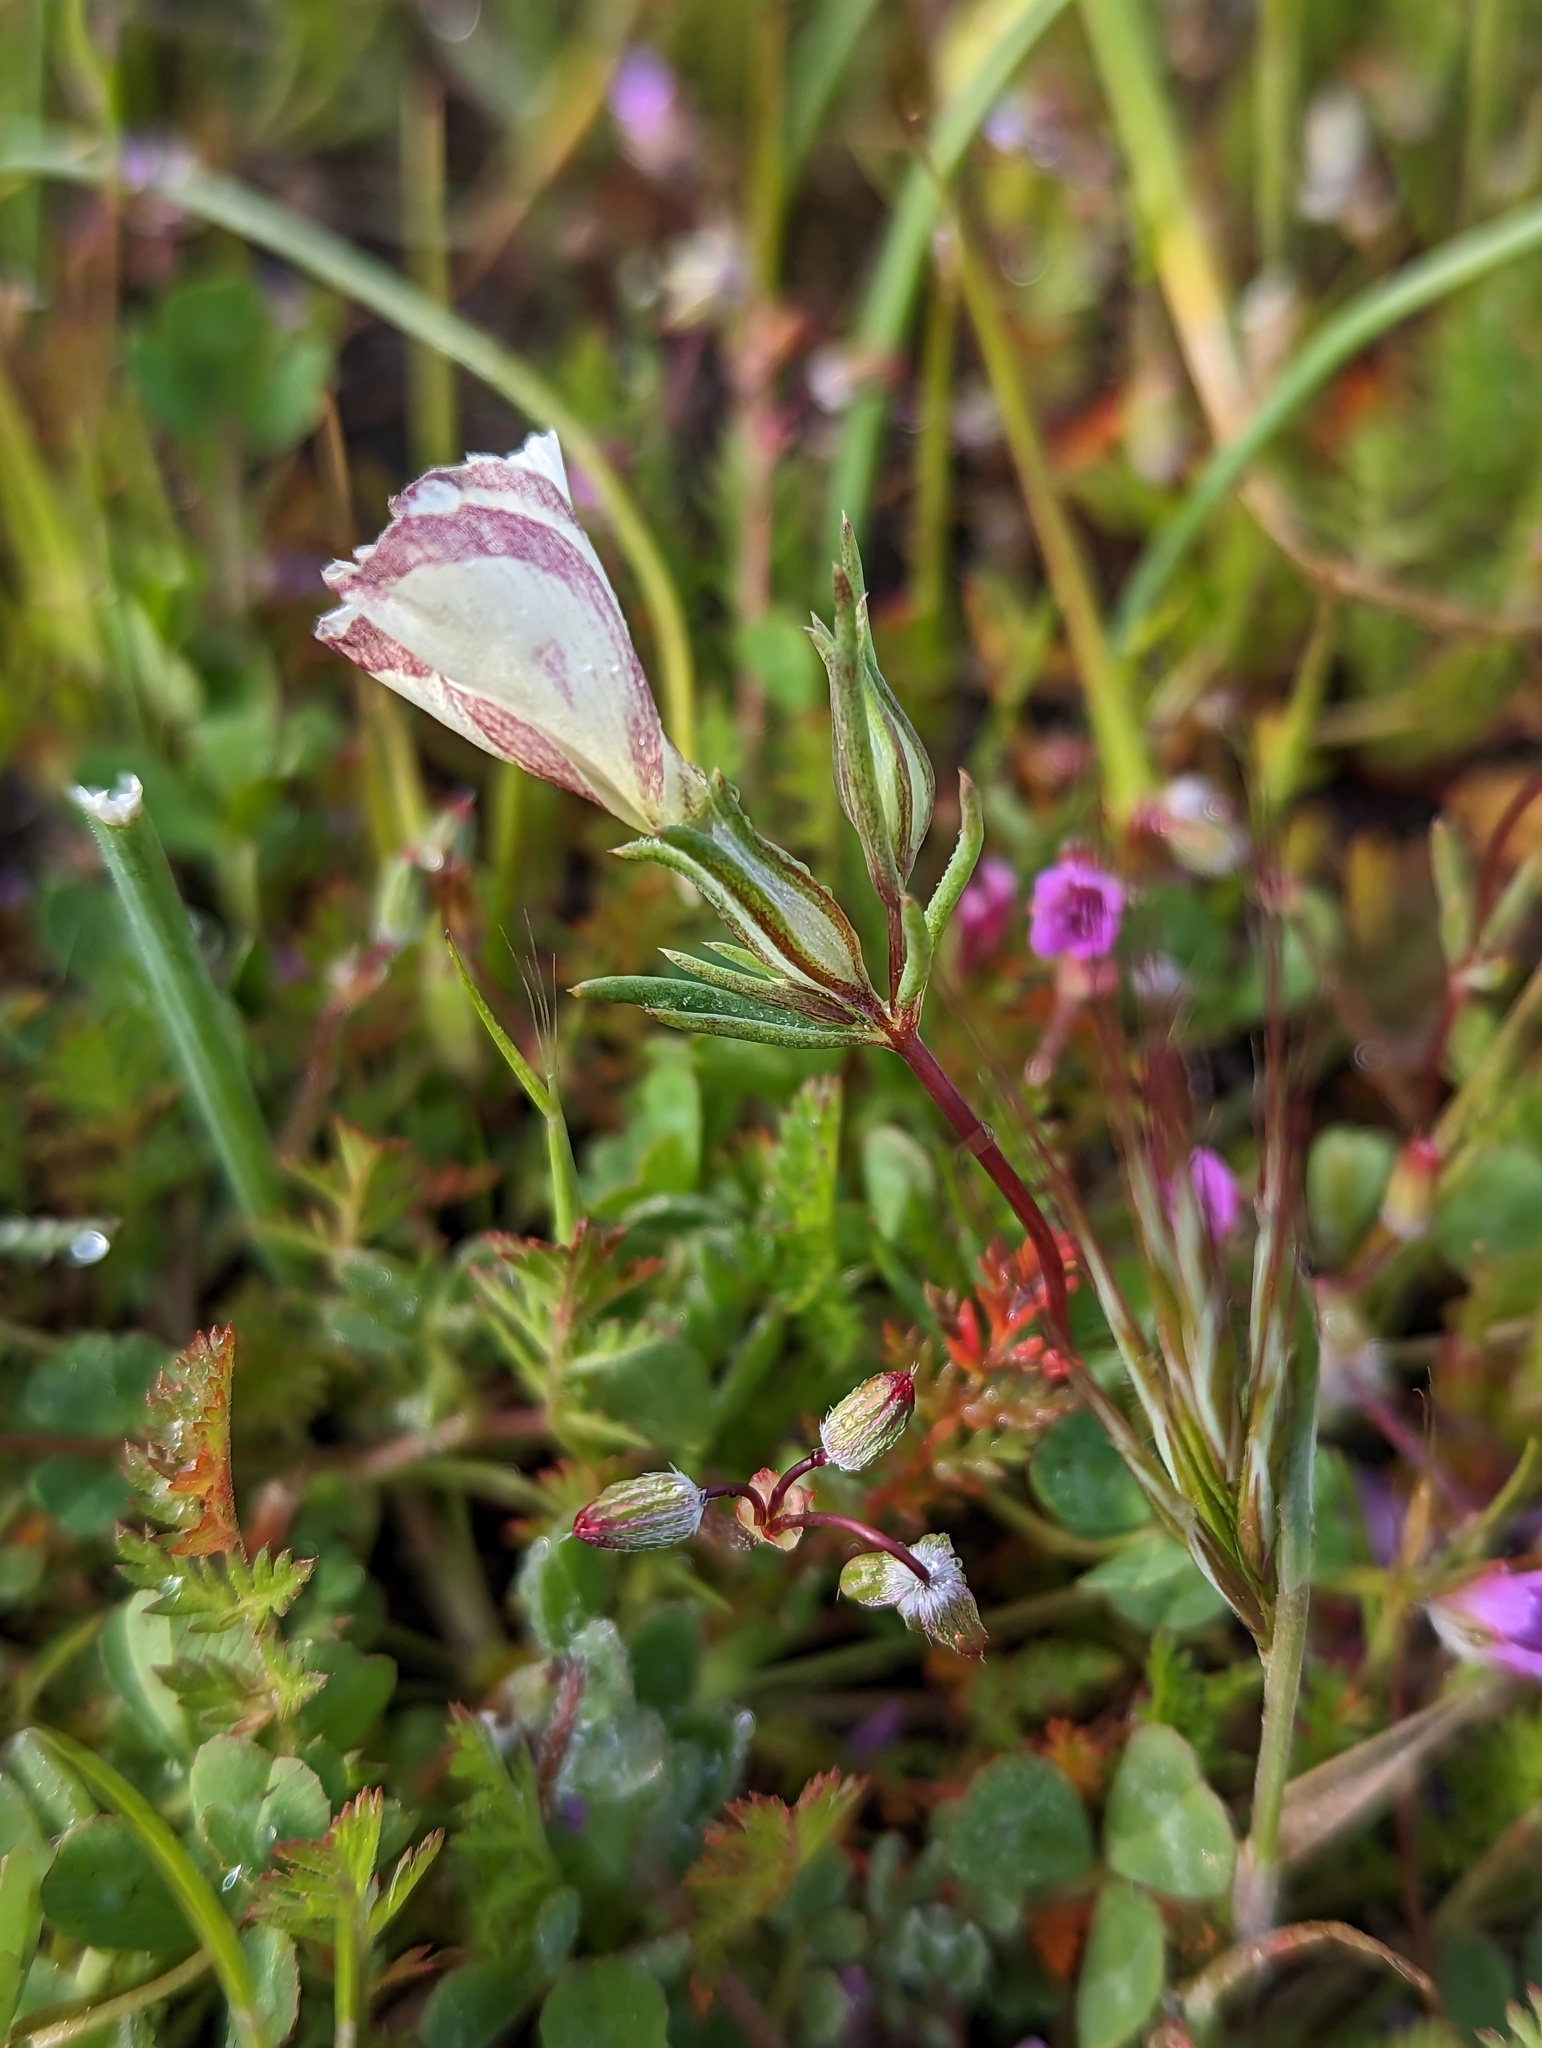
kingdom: Plantae
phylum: Tracheophyta
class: Magnoliopsida
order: Ericales
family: Polemoniaceae
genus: Linanthus
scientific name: Linanthus dichotomus
